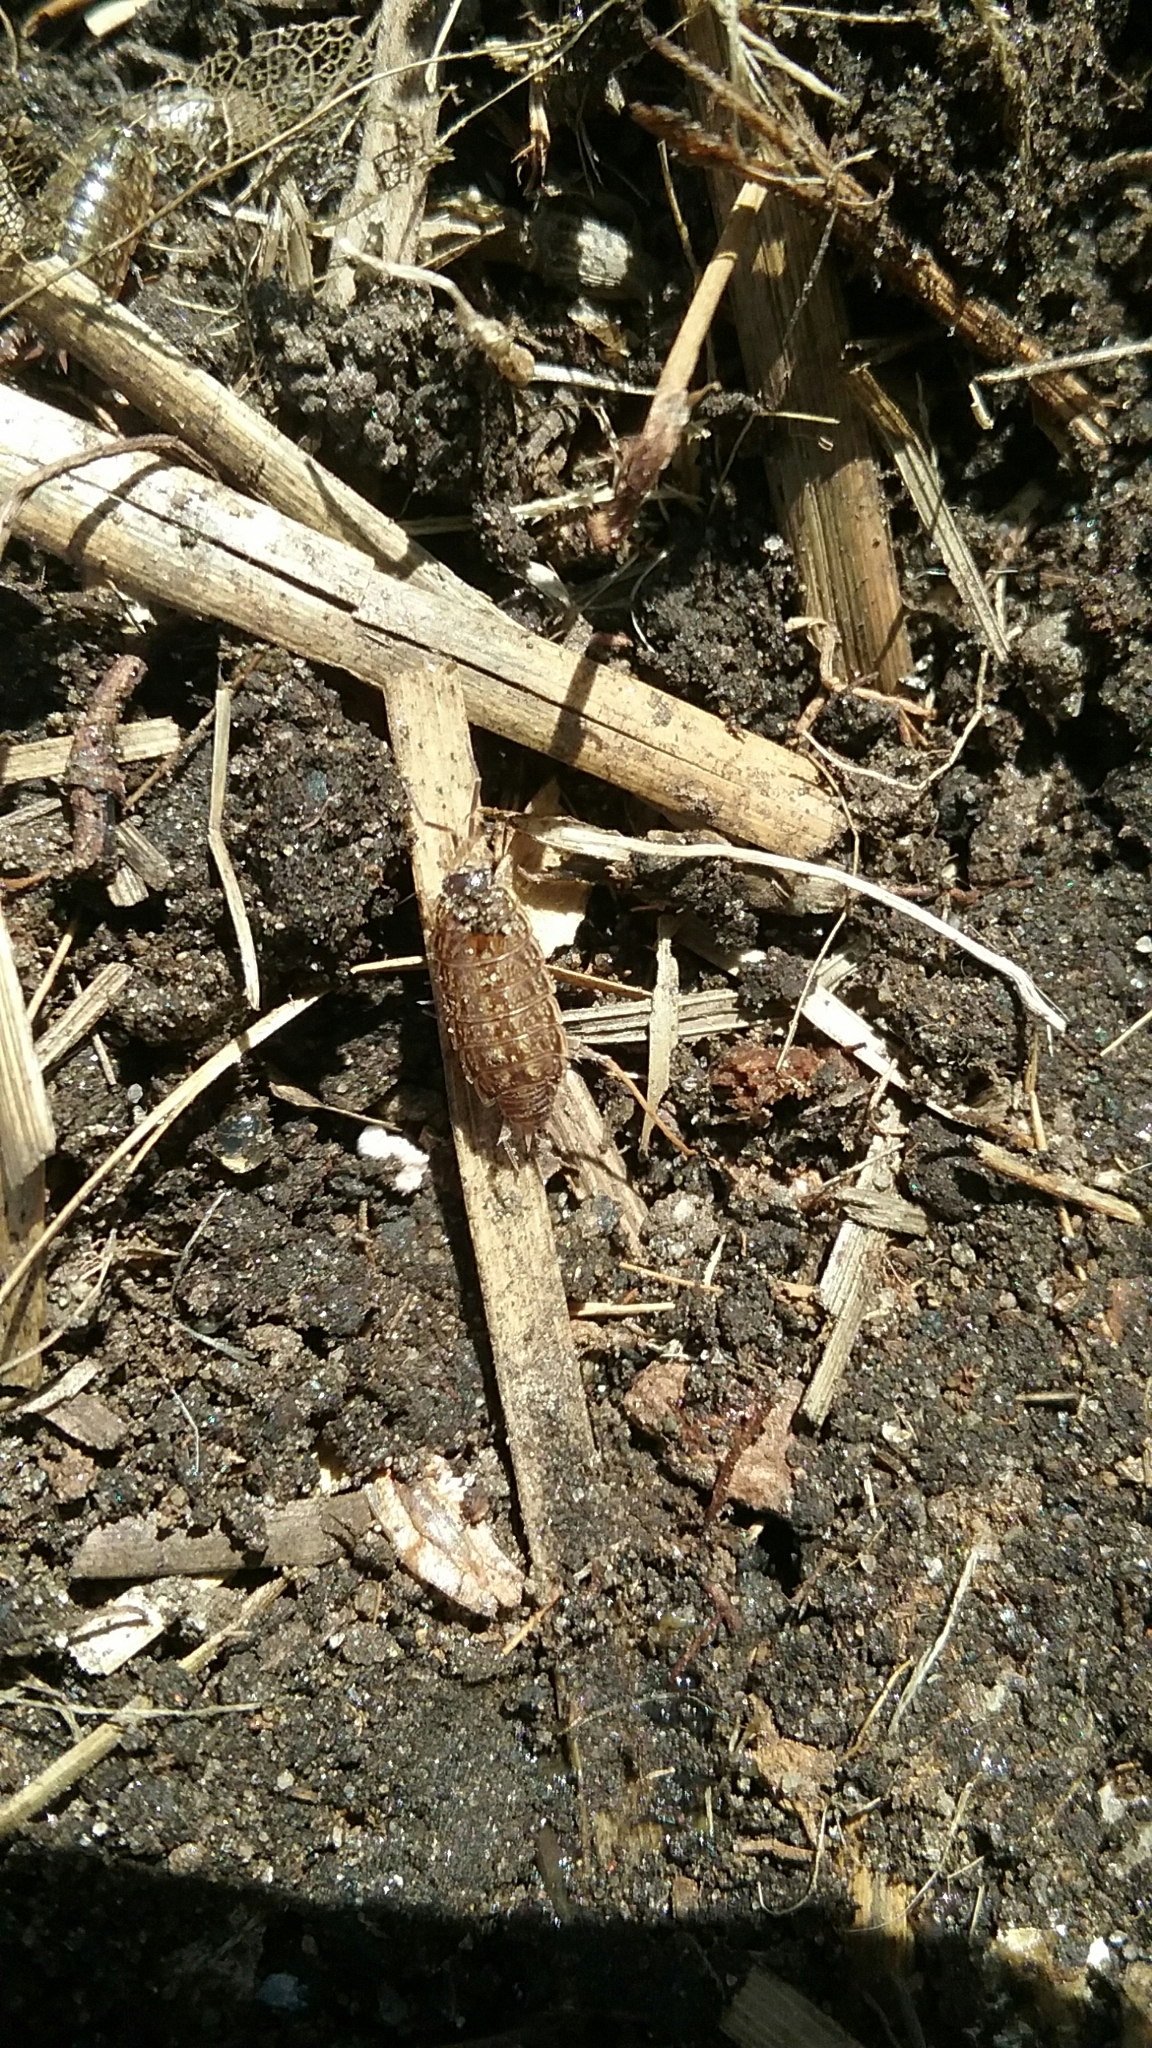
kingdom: Animalia
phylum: Arthropoda
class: Malacostraca
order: Isopoda
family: Philosciidae
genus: Philoscia
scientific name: Philoscia muscorum
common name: Common striped woodlouse
